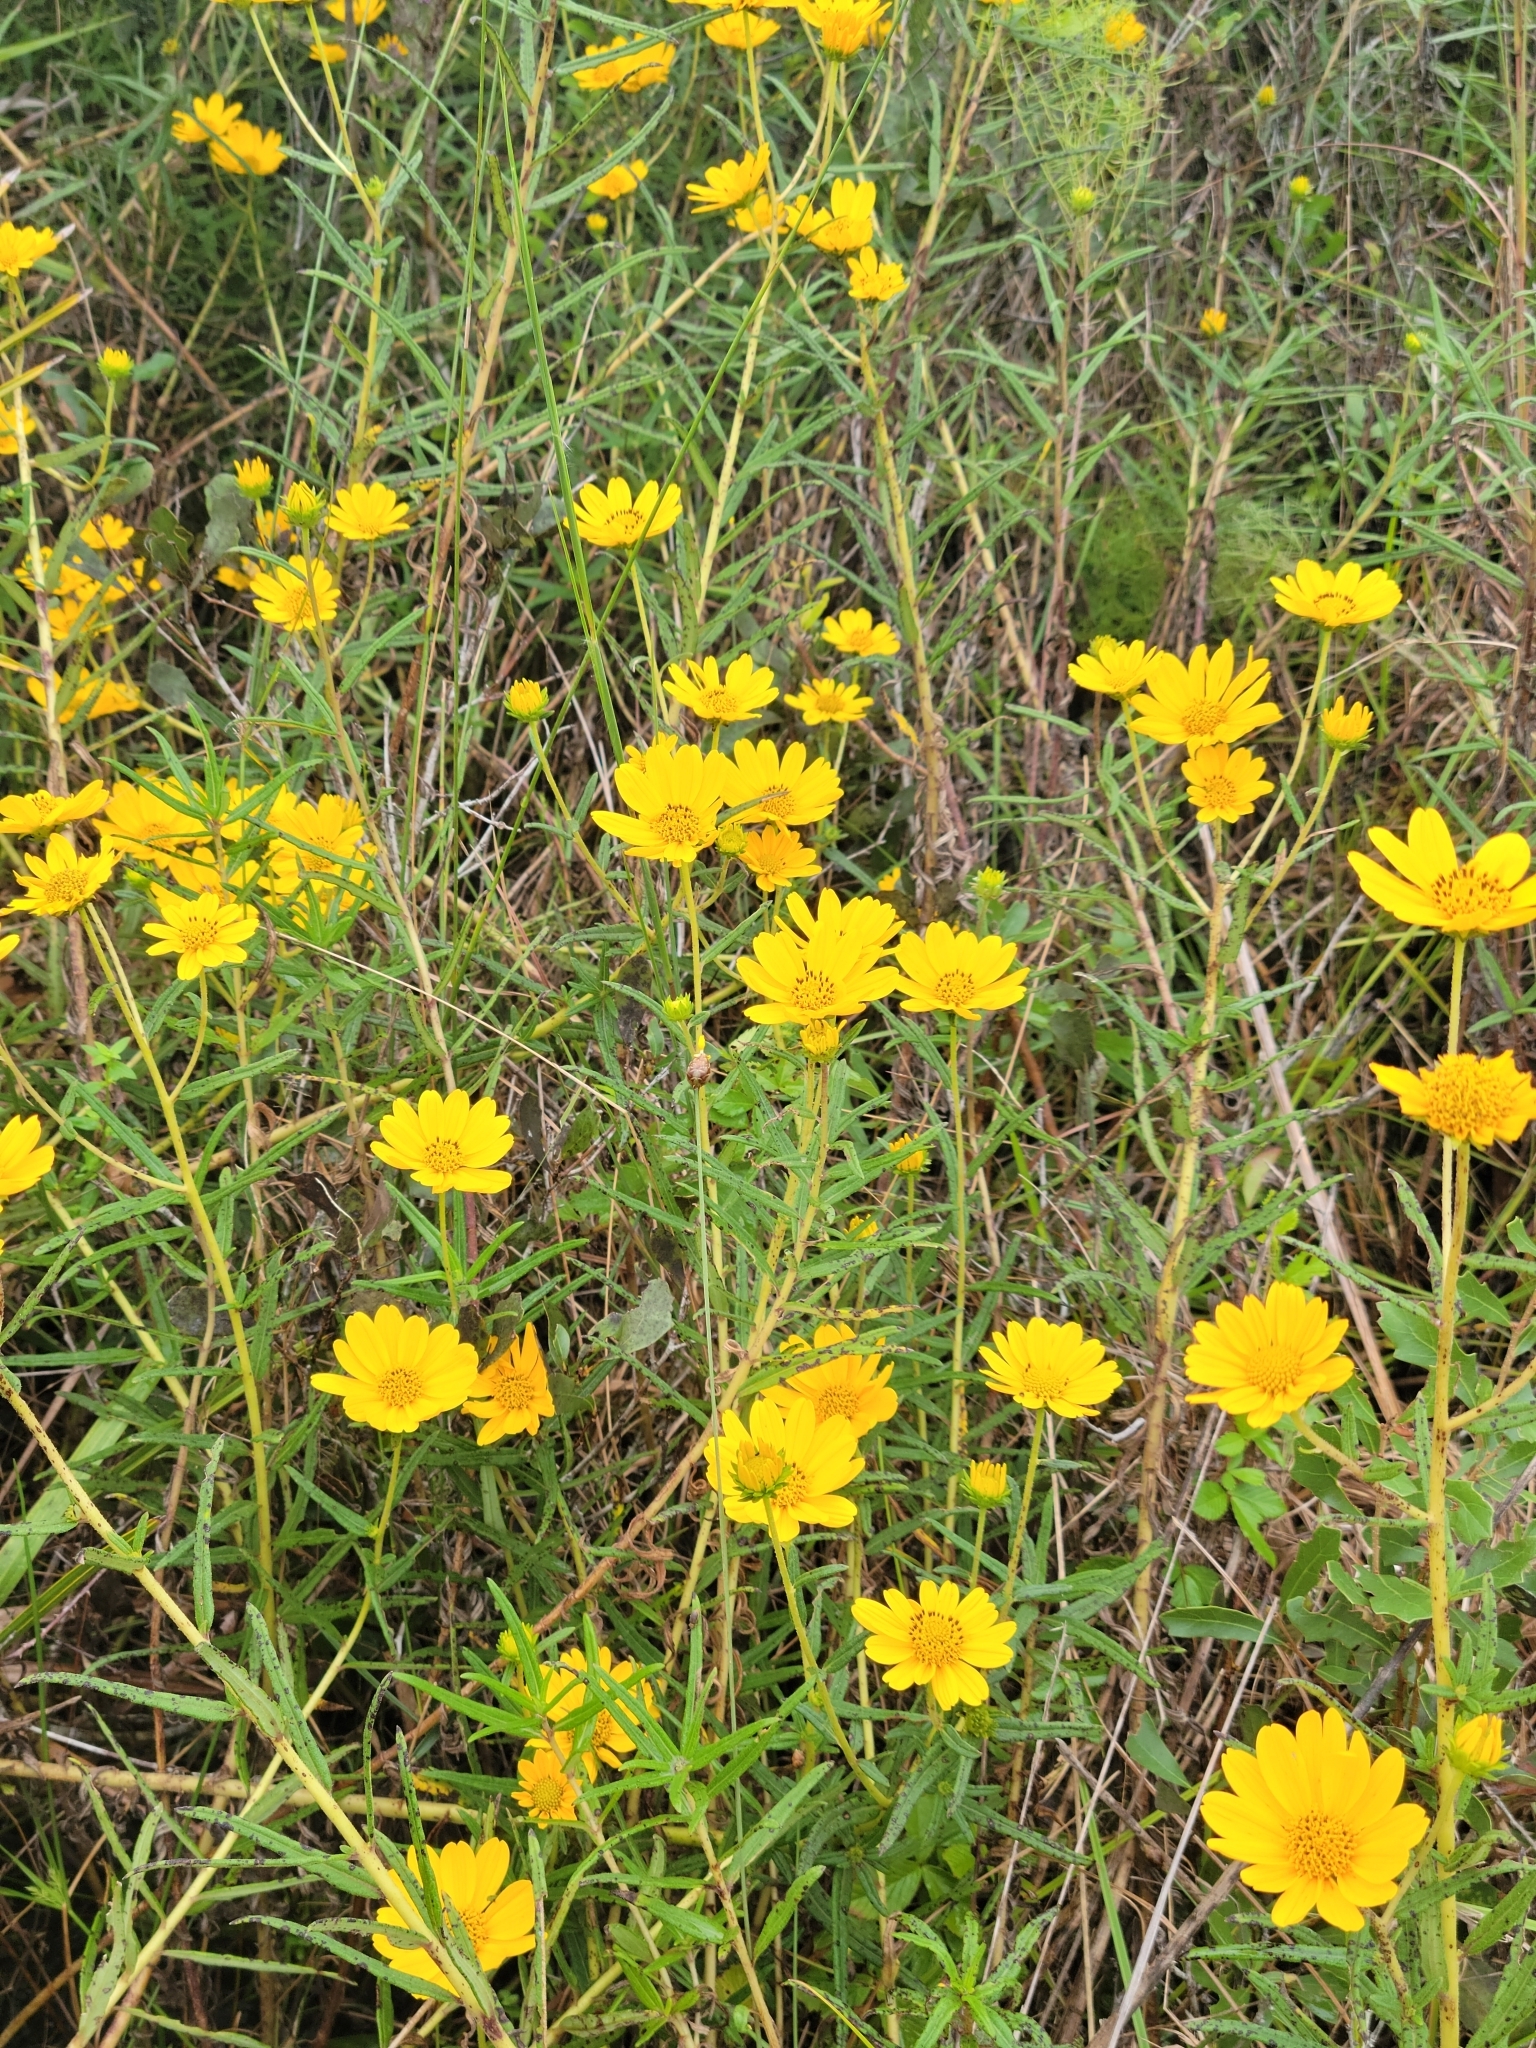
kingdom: Plantae
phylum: Tracheophyta
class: Magnoliopsida
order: Asterales
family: Asteraceae
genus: Helianthus
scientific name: Helianthus angustifolius
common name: Swamp sunflower
